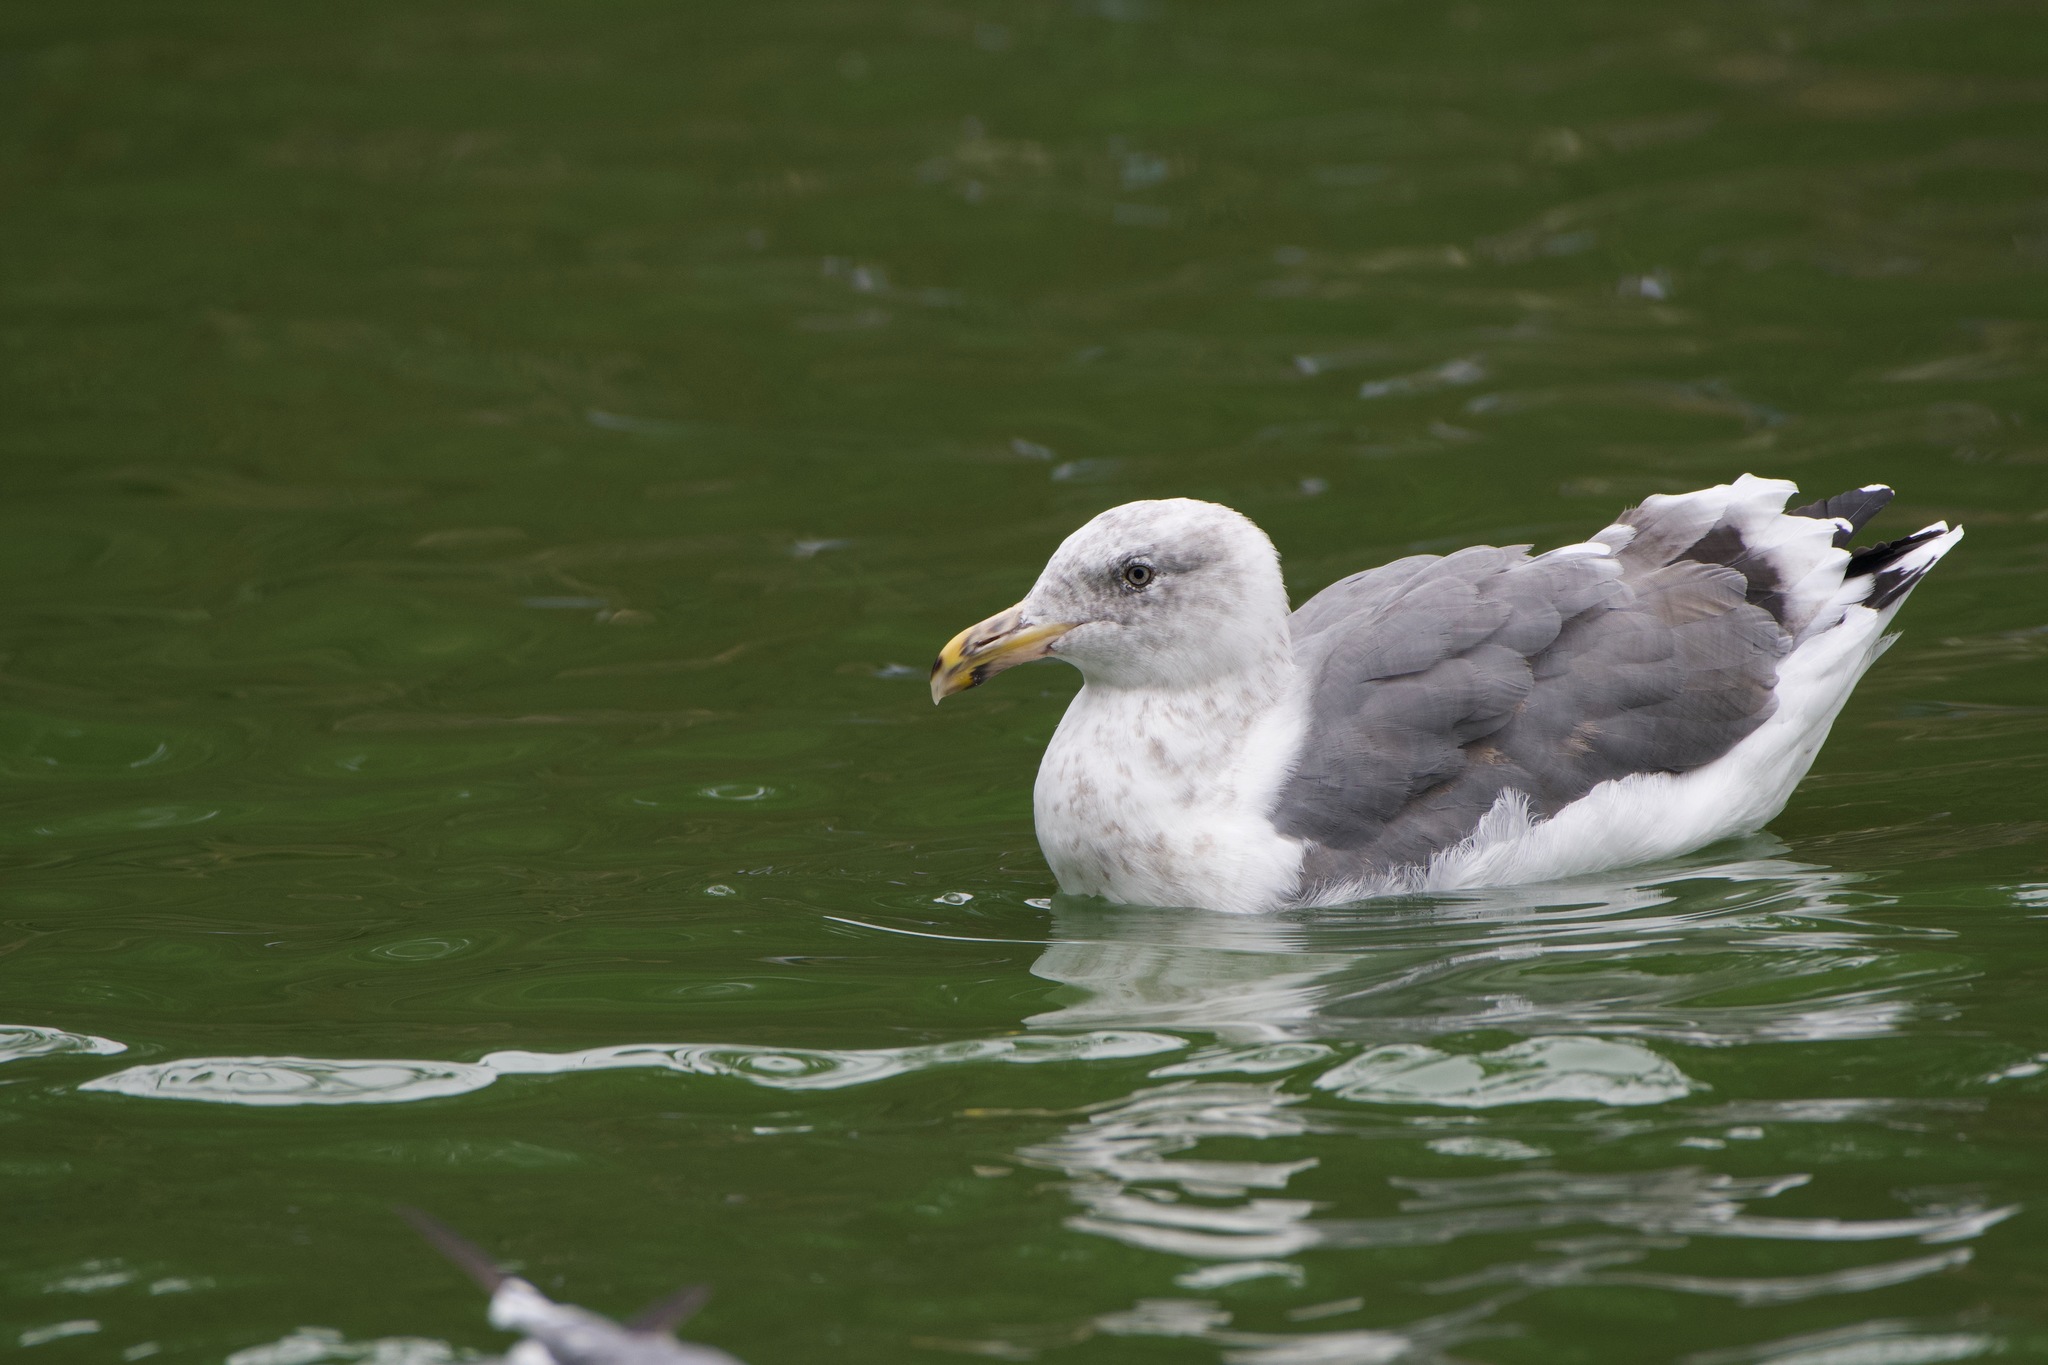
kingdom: Animalia
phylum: Chordata
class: Aves
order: Charadriiformes
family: Laridae
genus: Larus
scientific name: Larus occidentalis
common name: Western gull
